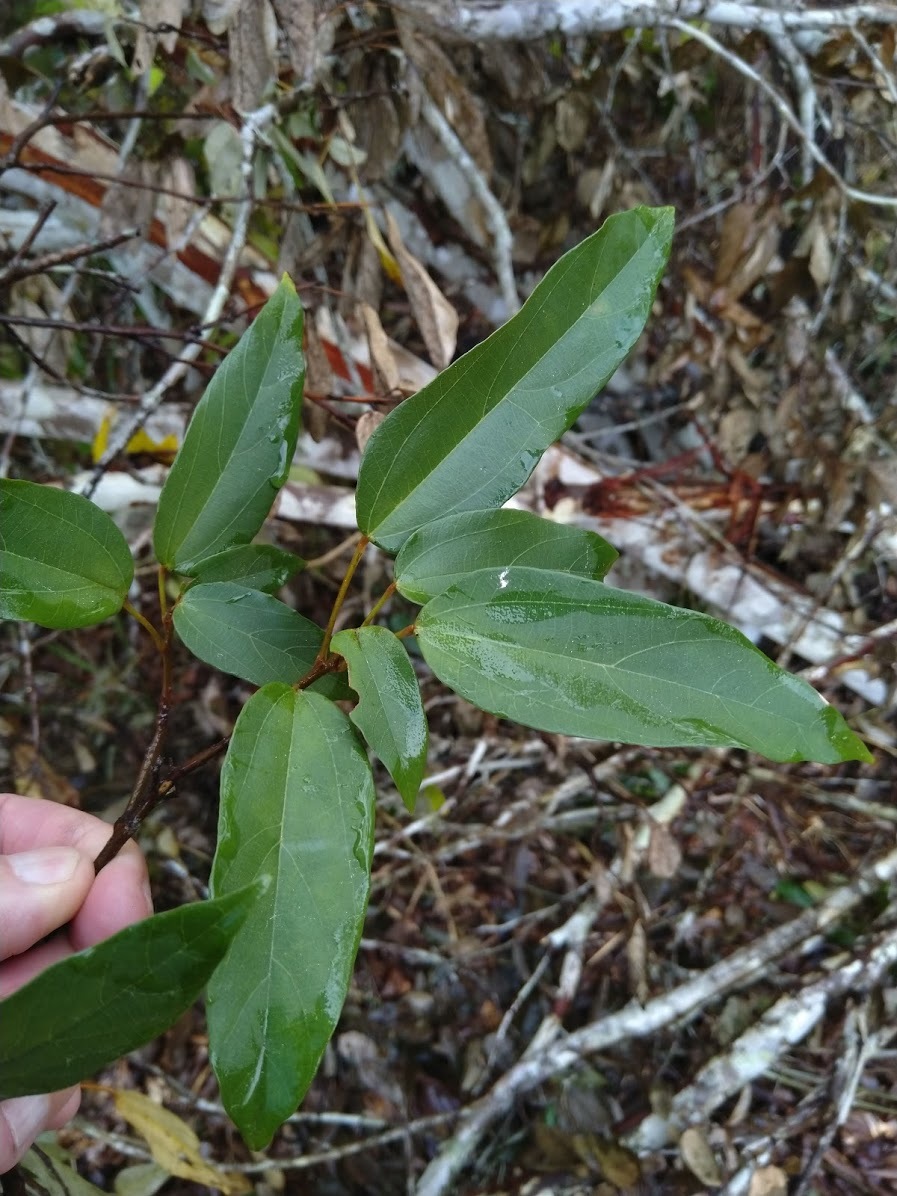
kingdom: Plantae
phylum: Tracheophyta
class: Magnoliopsida
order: Malpighiales
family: Euphorbiaceae
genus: Mallotus
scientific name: Mallotus philippensis
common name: Kamala tree
